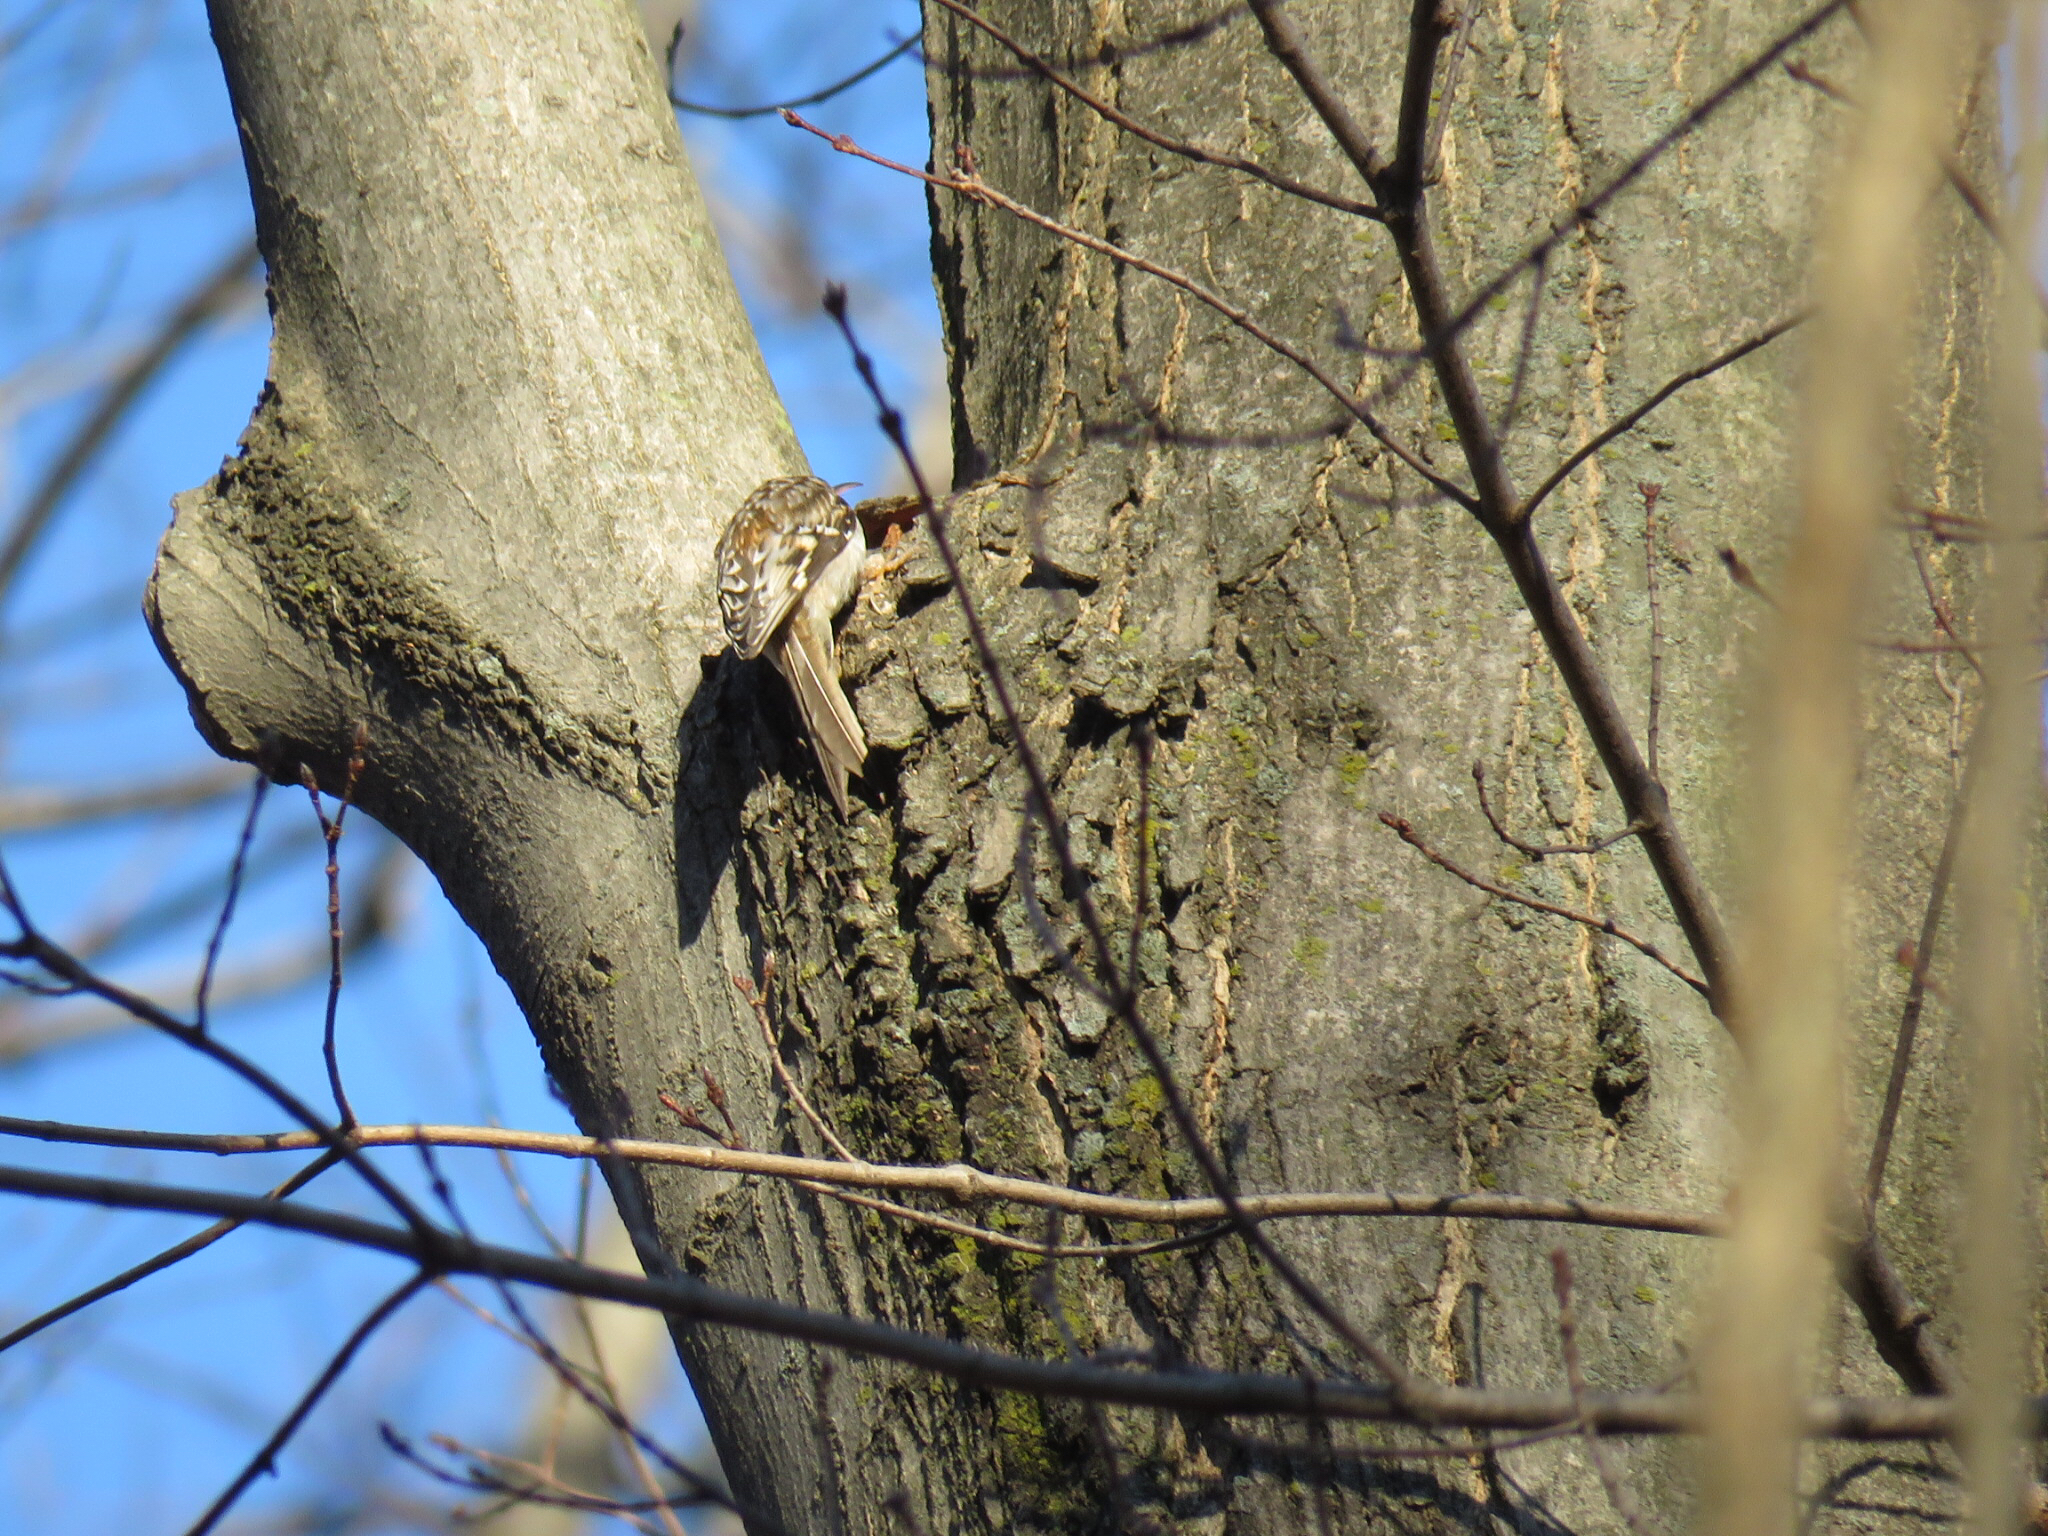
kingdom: Animalia
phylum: Chordata
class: Aves
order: Passeriformes
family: Certhiidae
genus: Certhia
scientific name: Certhia americana
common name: Brown creeper
